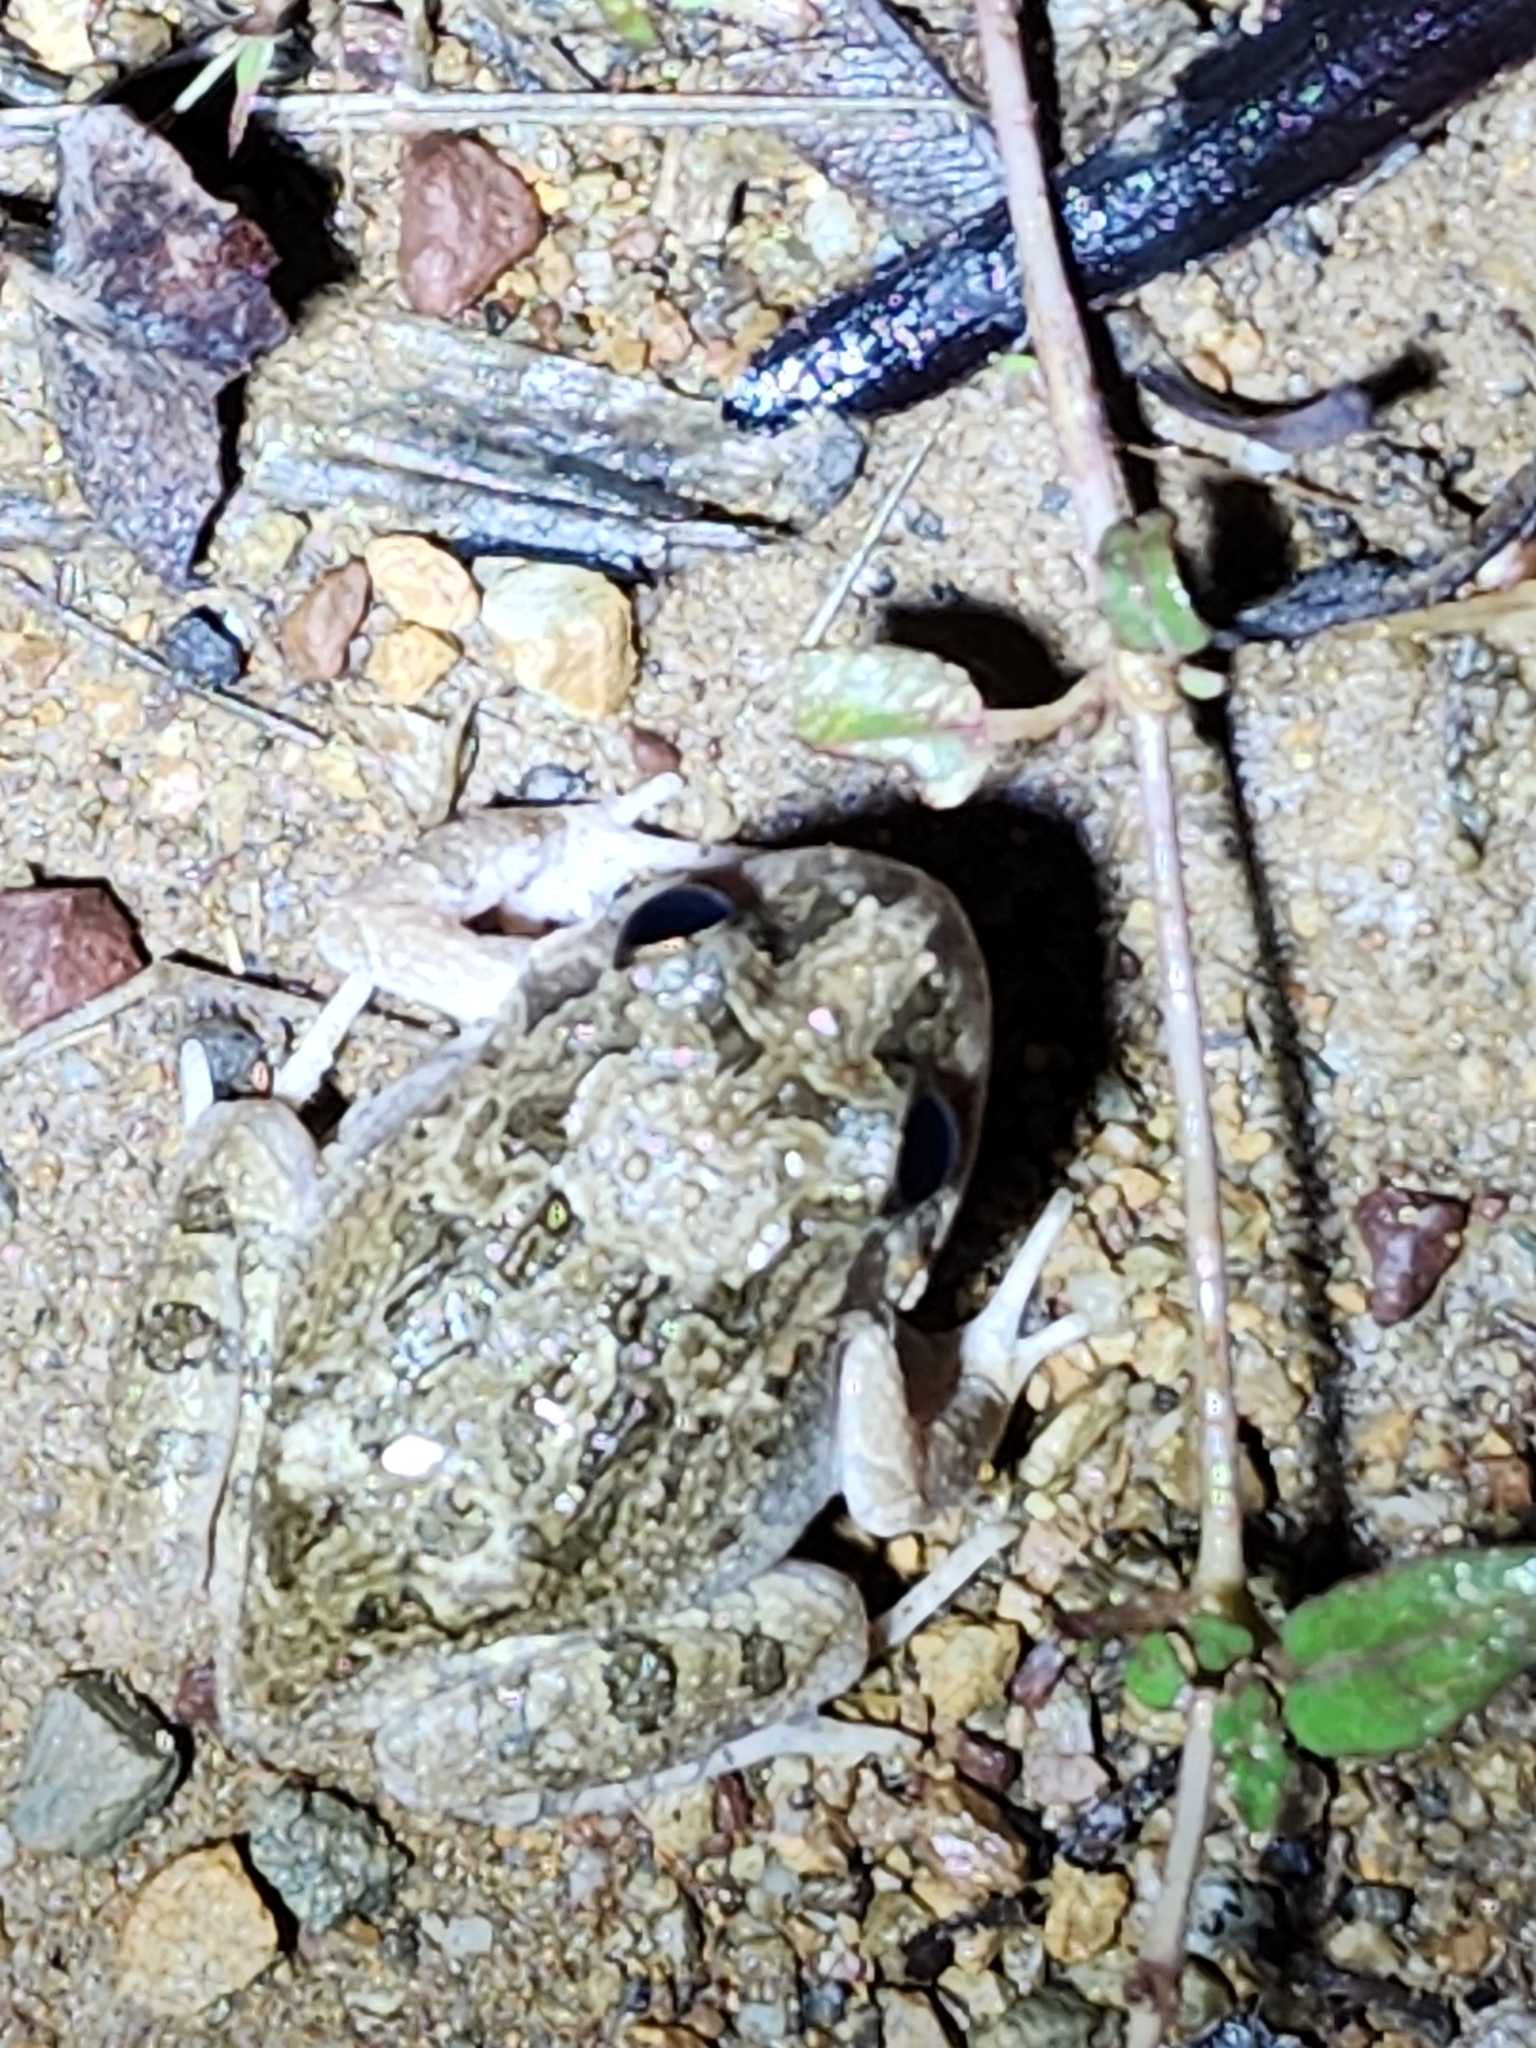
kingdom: Animalia
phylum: Chordata
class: Amphibia
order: Anura
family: Limnodynastidae
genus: Platyplectrum
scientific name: Platyplectrum ornatum
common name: Ornate burrowing frog
